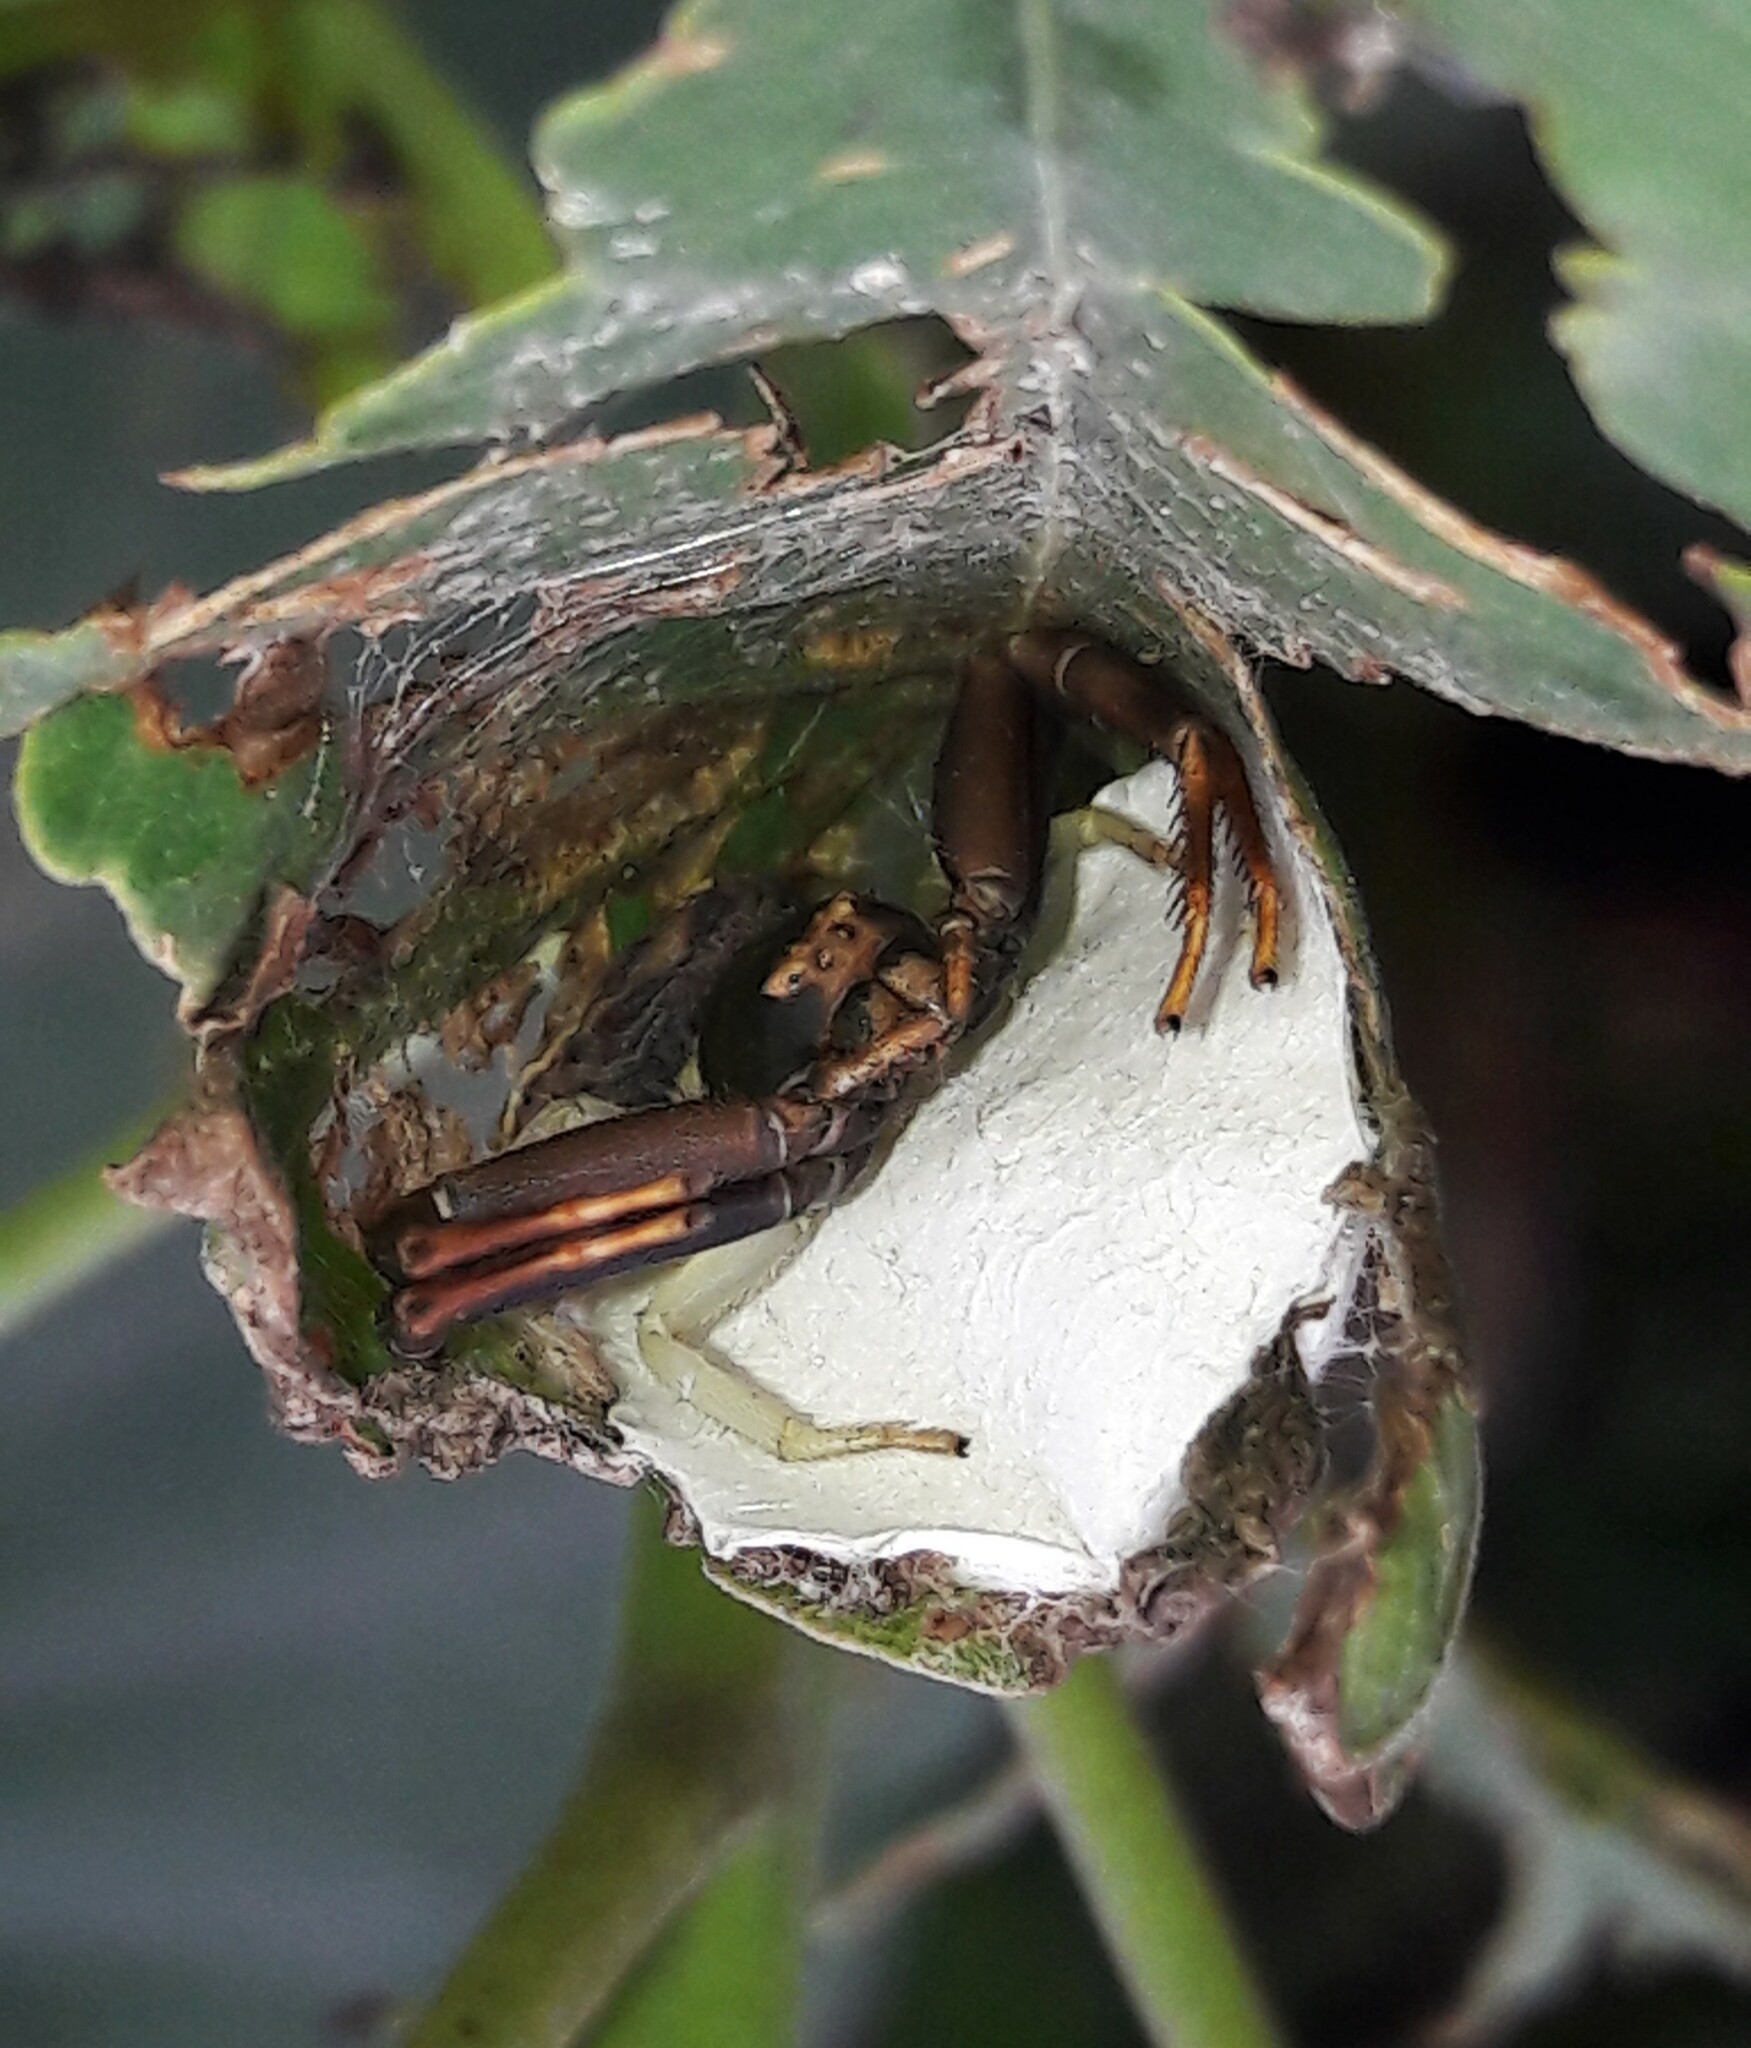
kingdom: Animalia
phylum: Arthropoda
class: Arachnida
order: Araneae
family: Thomisidae
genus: Runcinioides
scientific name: Runcinioides litteratus
